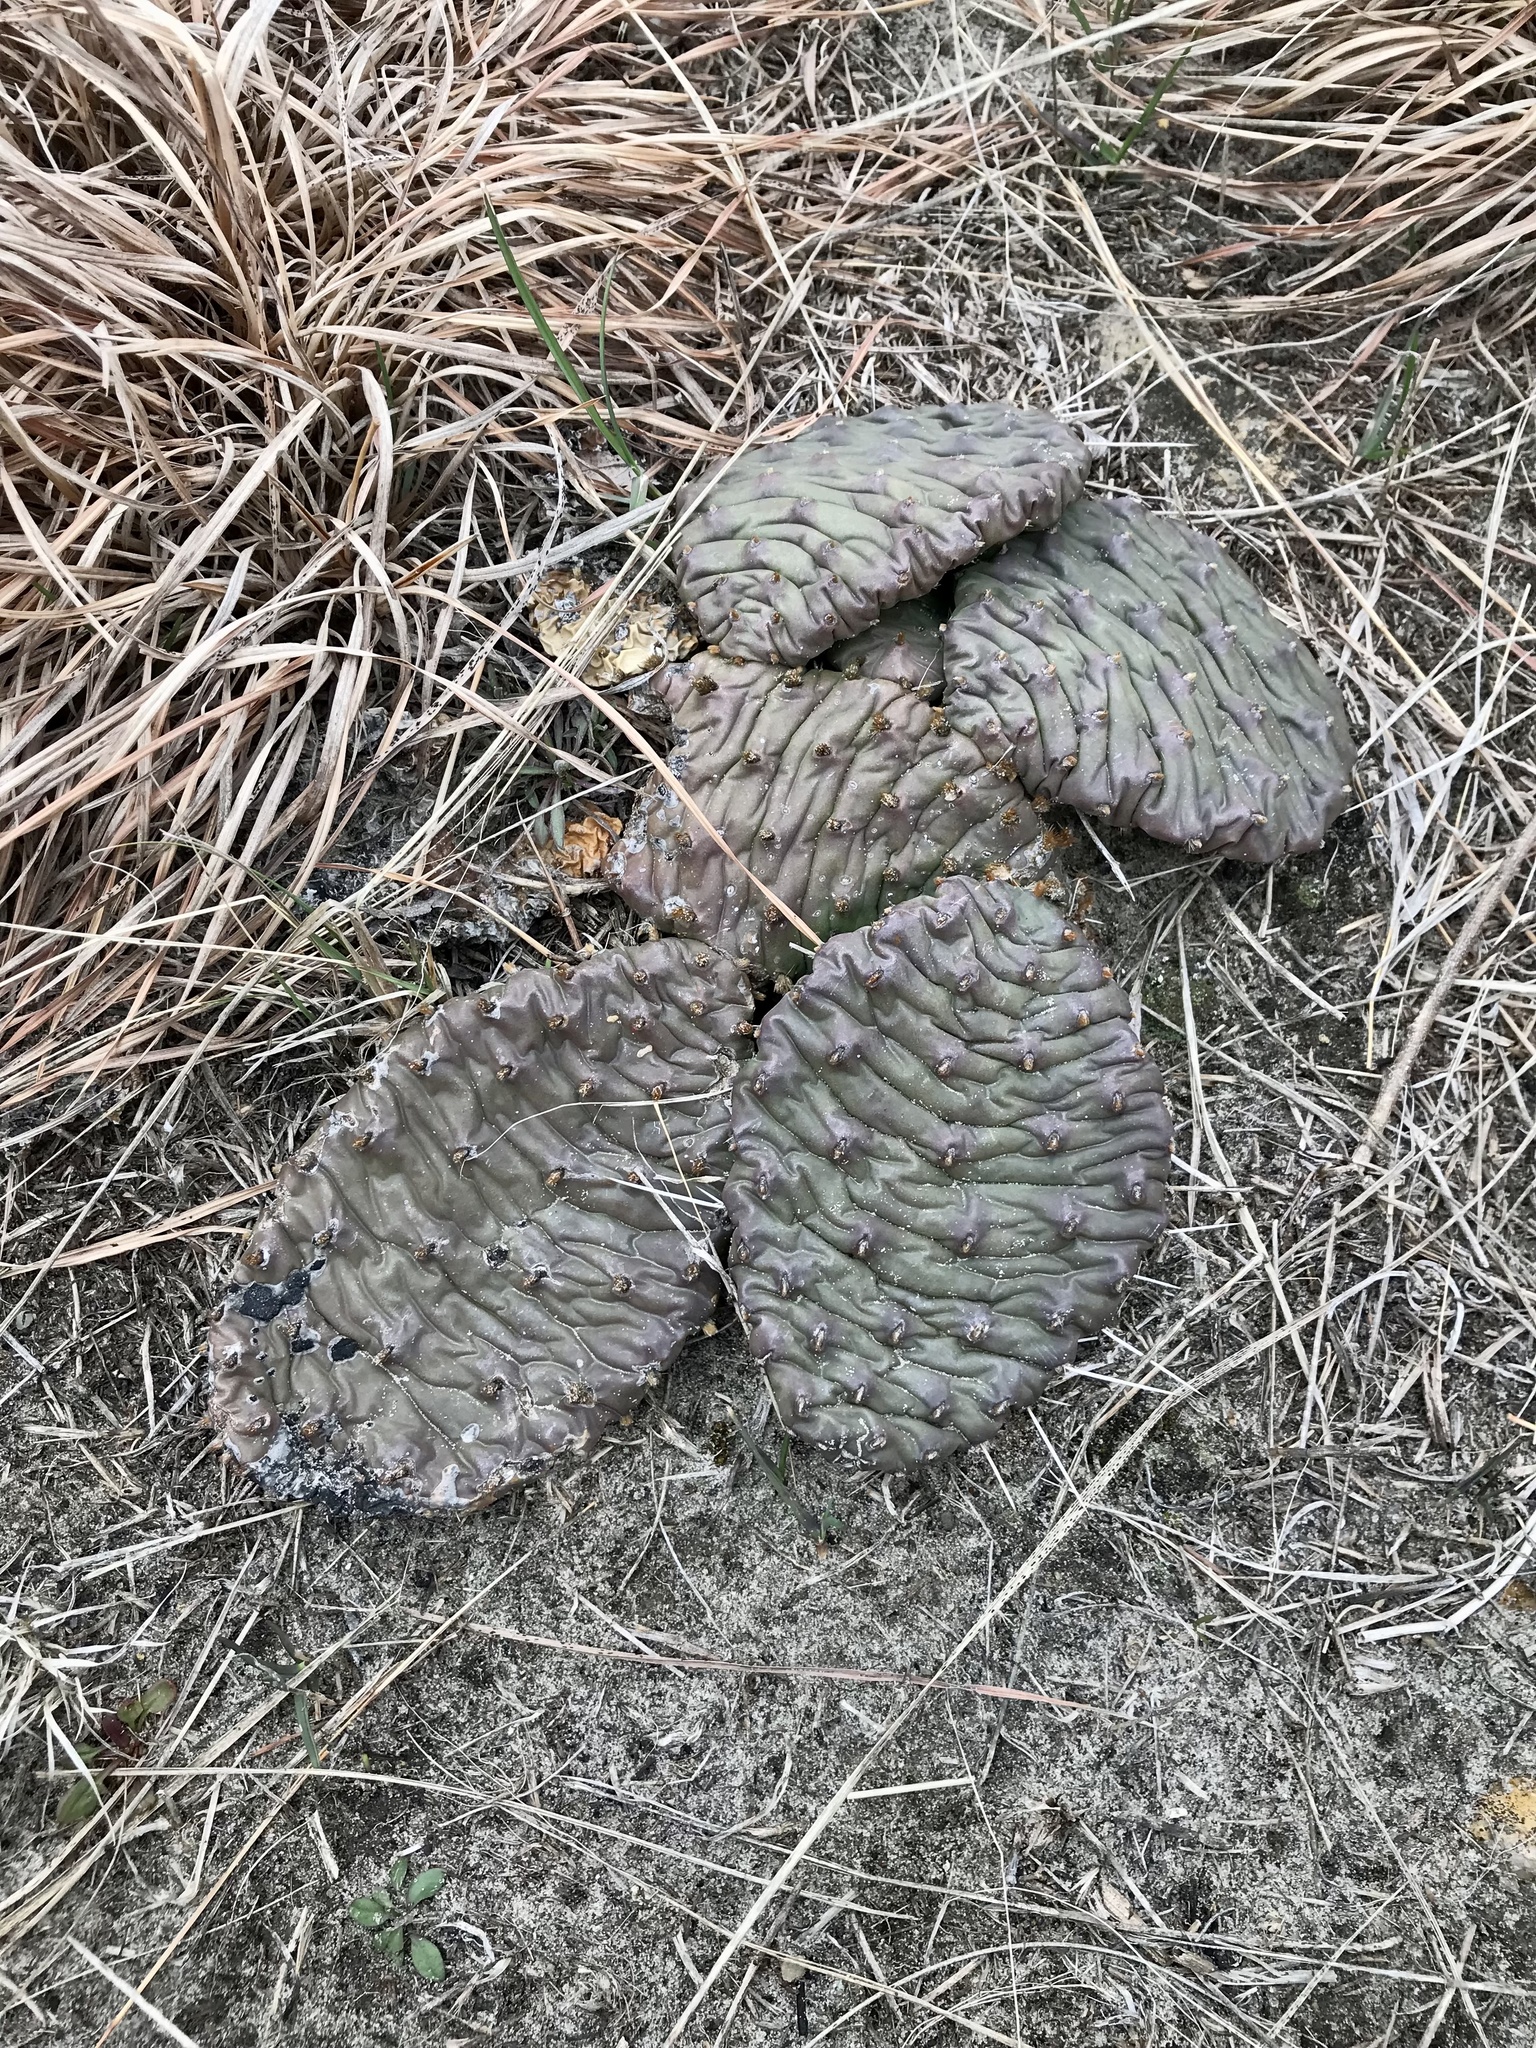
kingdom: Plantae
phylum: Tracheophyta
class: Magnoliopsida
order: Caryophyllales
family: Cactaceae
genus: Opuntia
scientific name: Opuntia macrorhiza
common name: Grassland pricklypear
